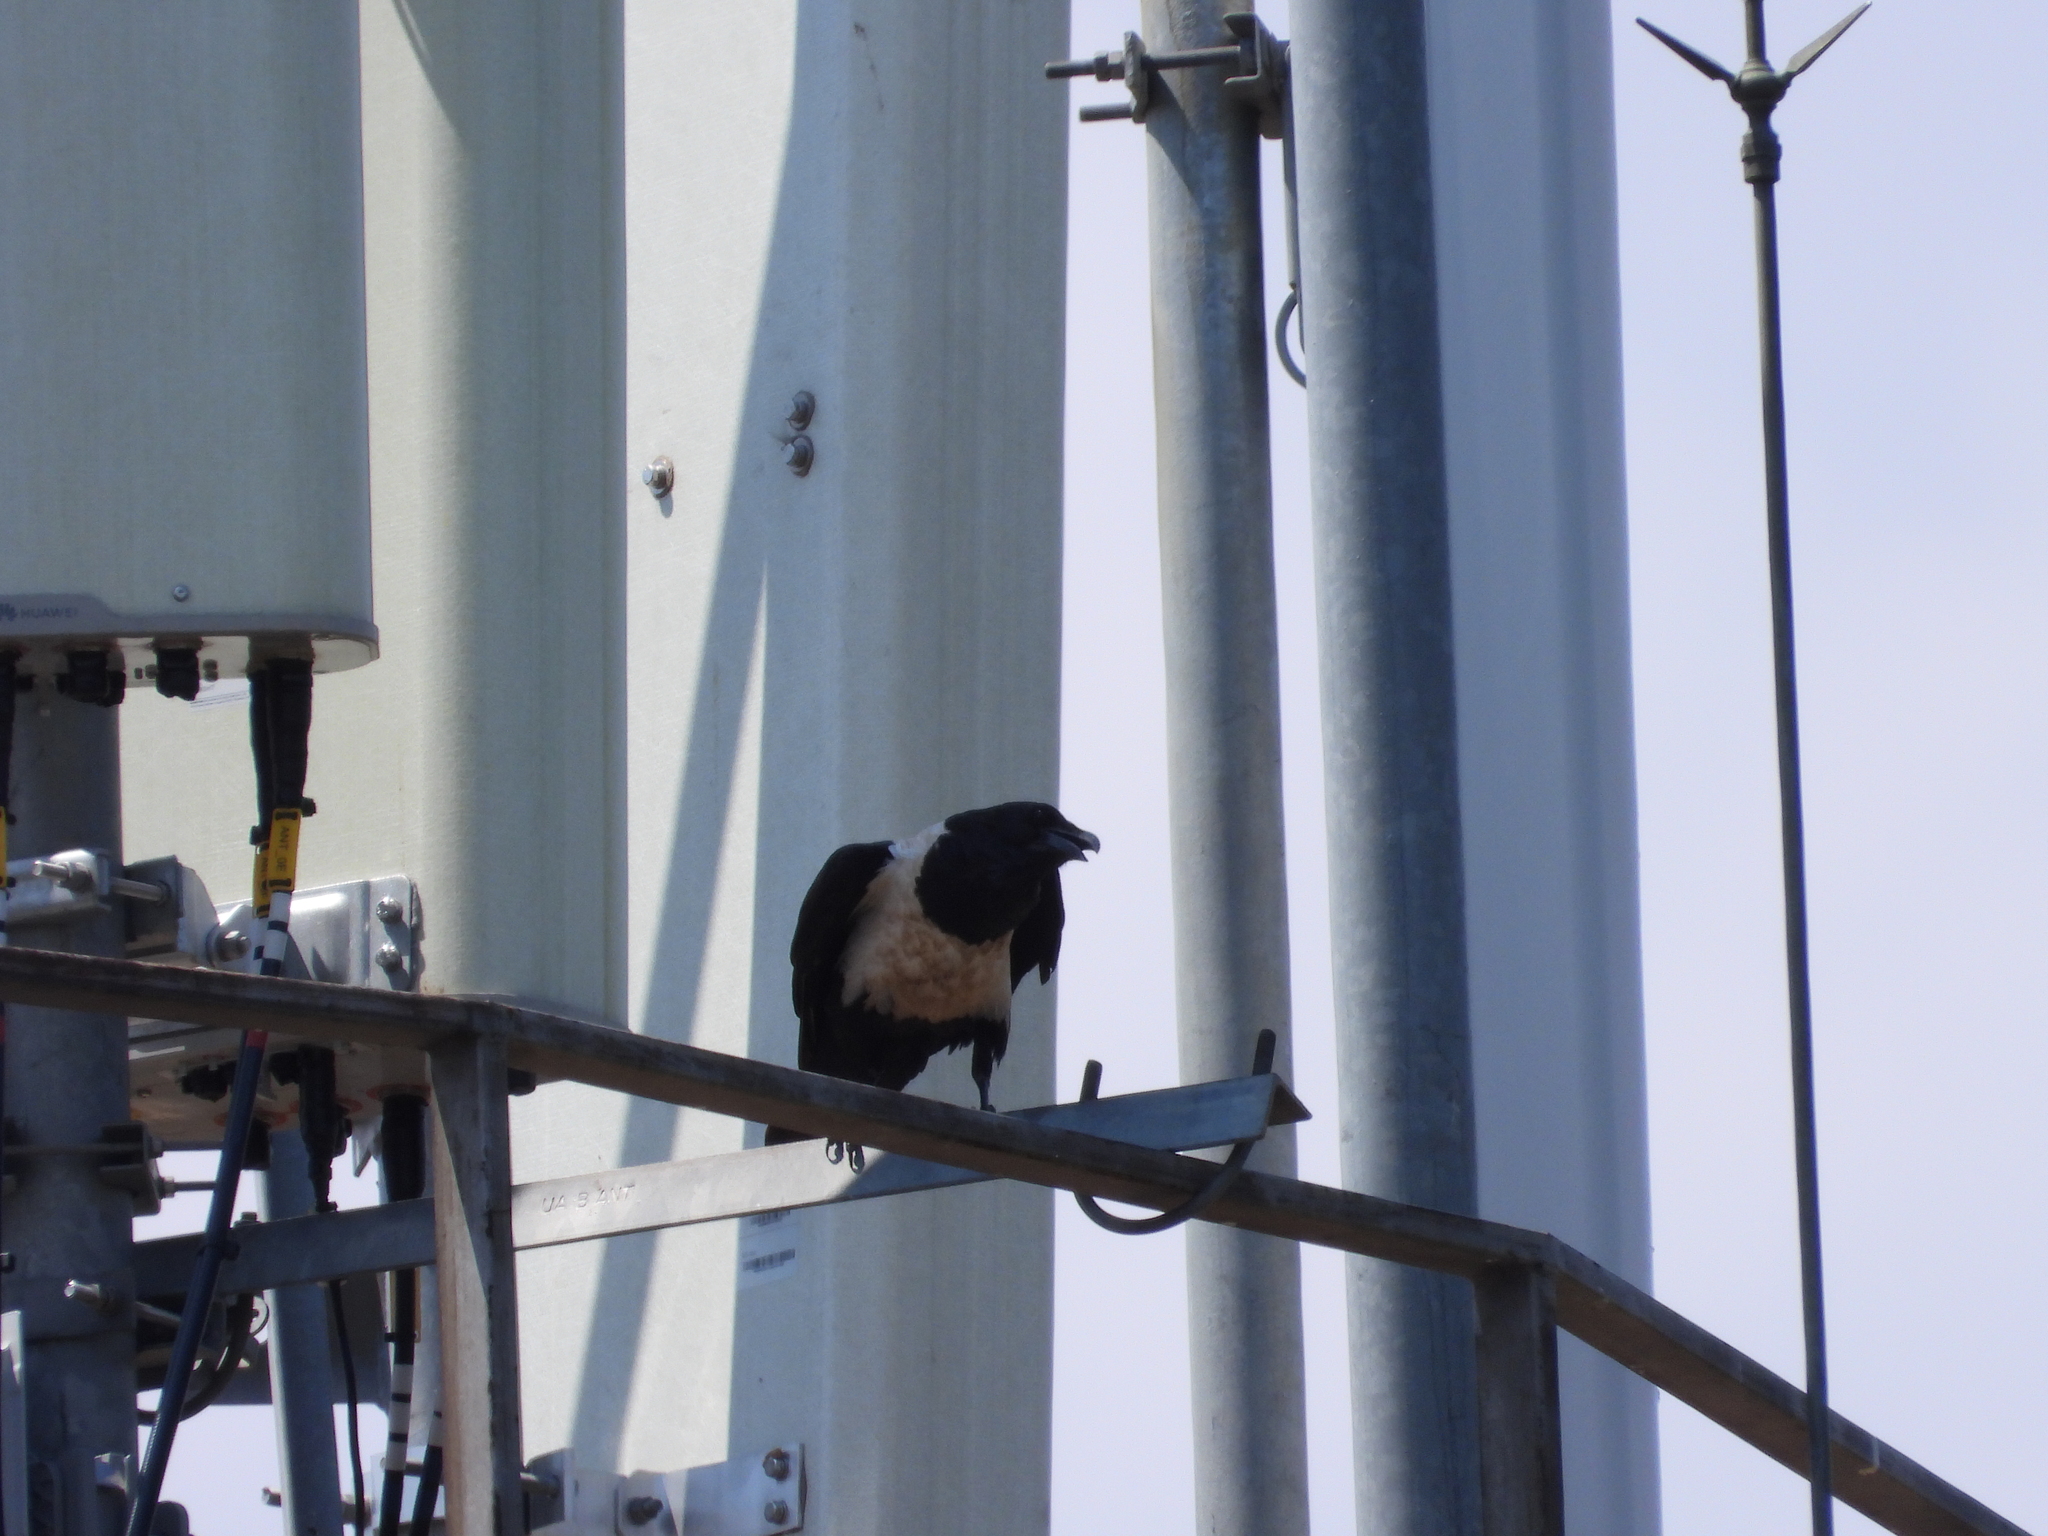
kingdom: Animalia
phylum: Chordata
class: Aves
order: Passeriformes
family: Corvidae
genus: Corvus
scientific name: Corvus albus
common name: Pied crow
